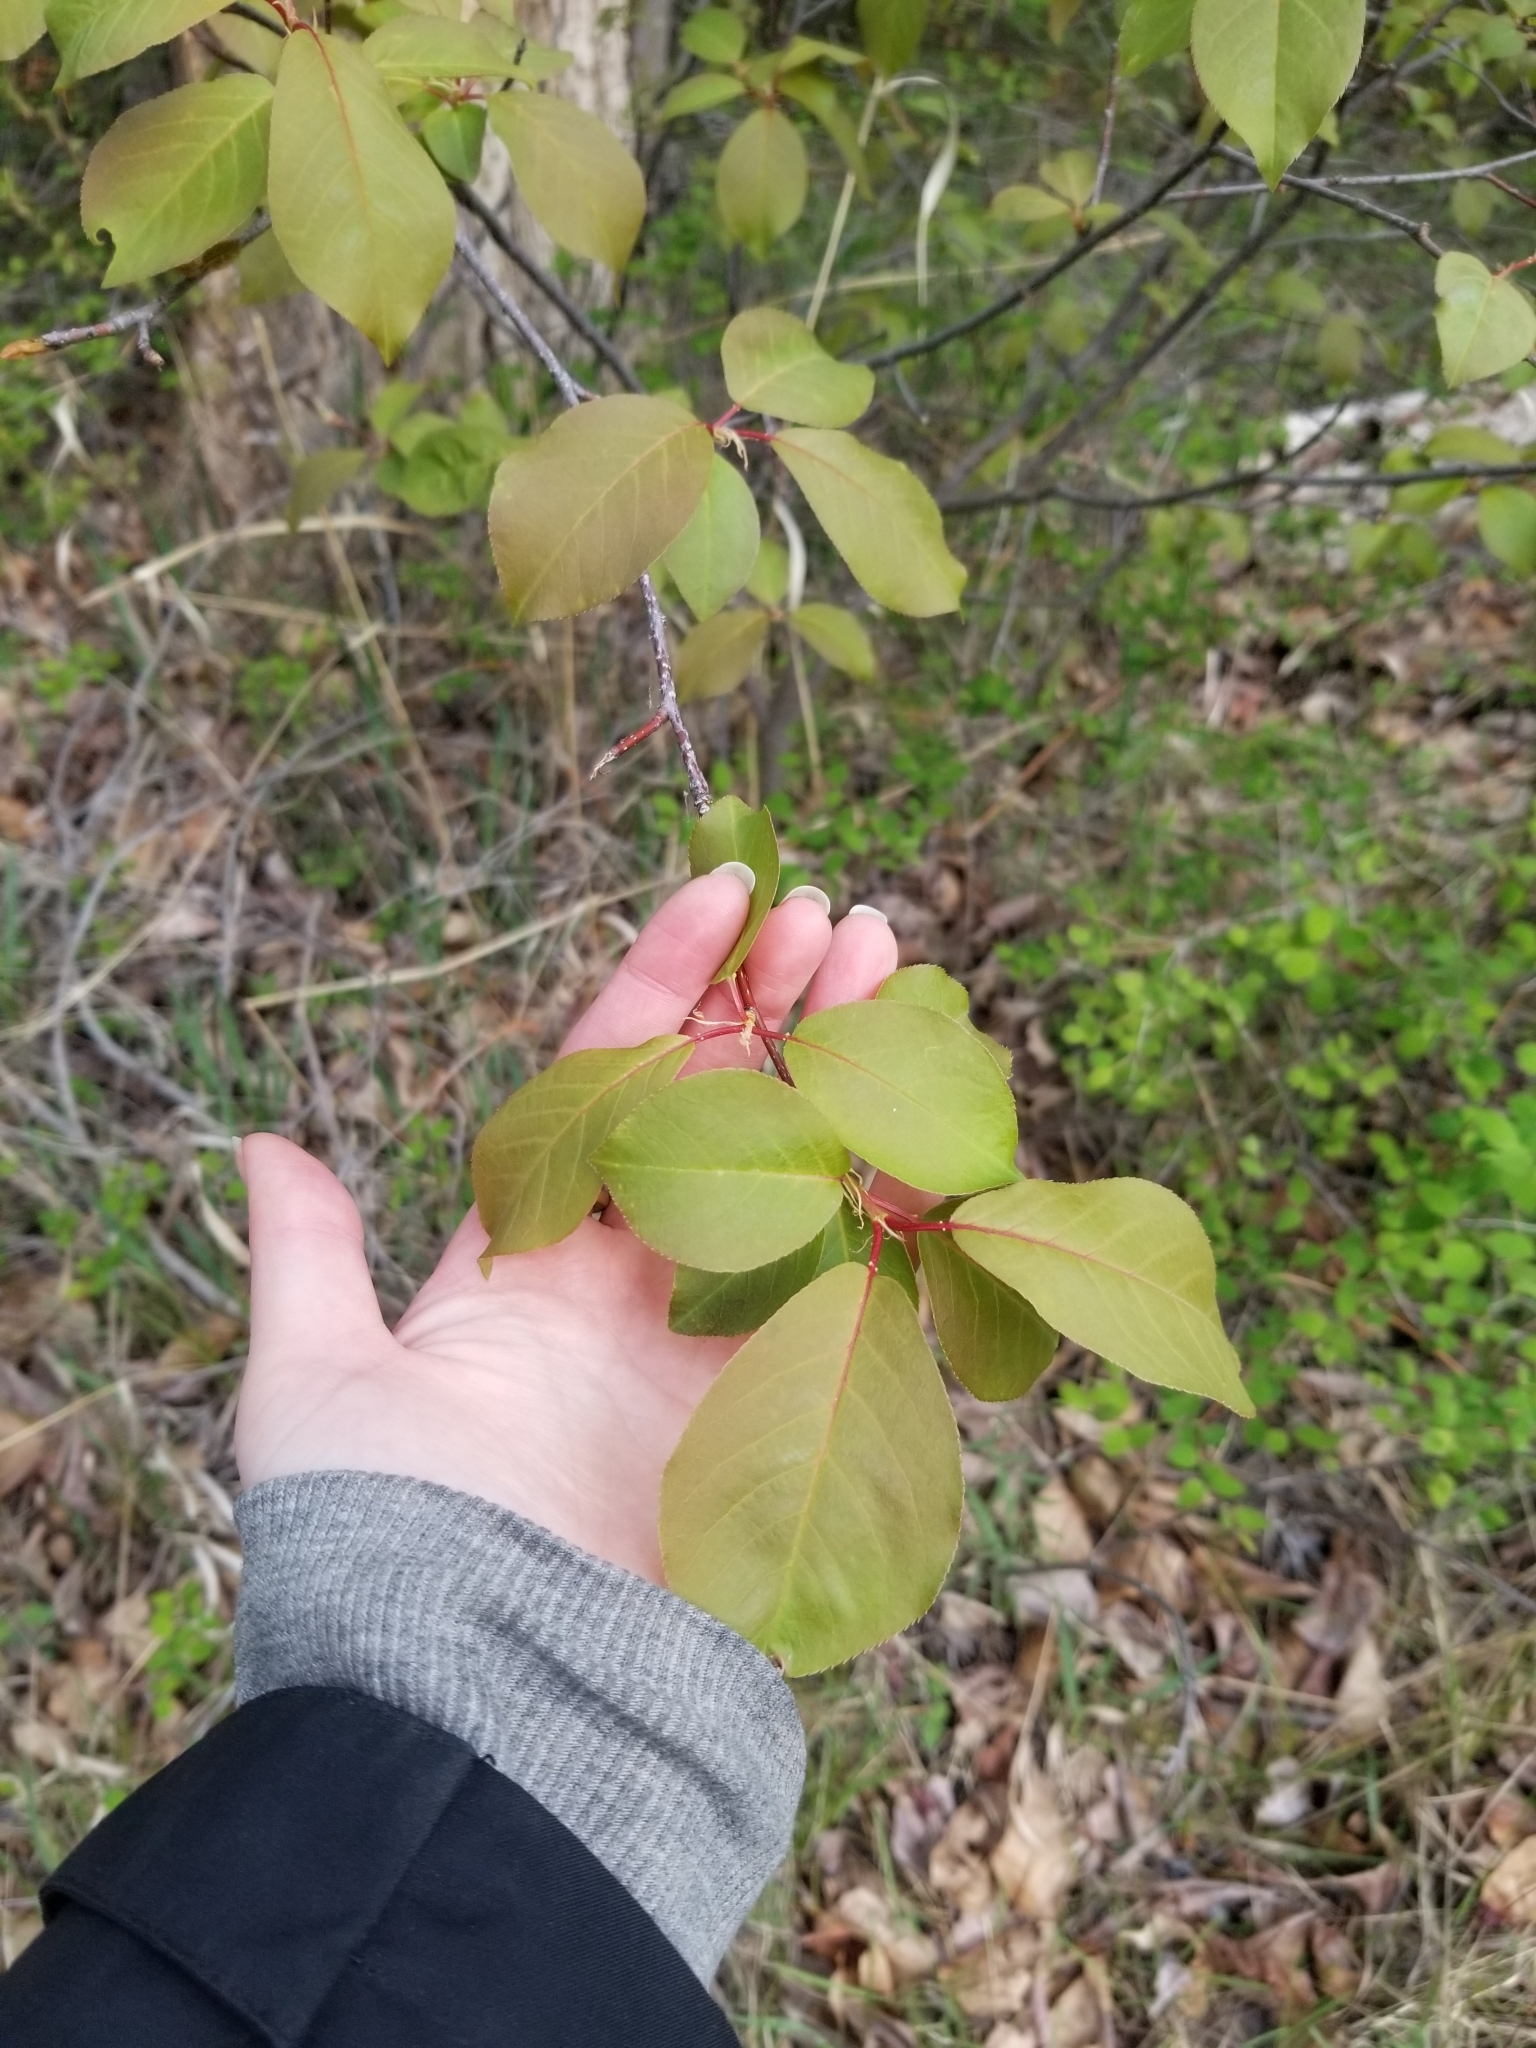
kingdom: Plantae
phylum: Tracheophyta
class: Magnoliopsida
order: Rosales
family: Rosaceae
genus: Prunus
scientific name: Prunus virginiana
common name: Chokecherry
